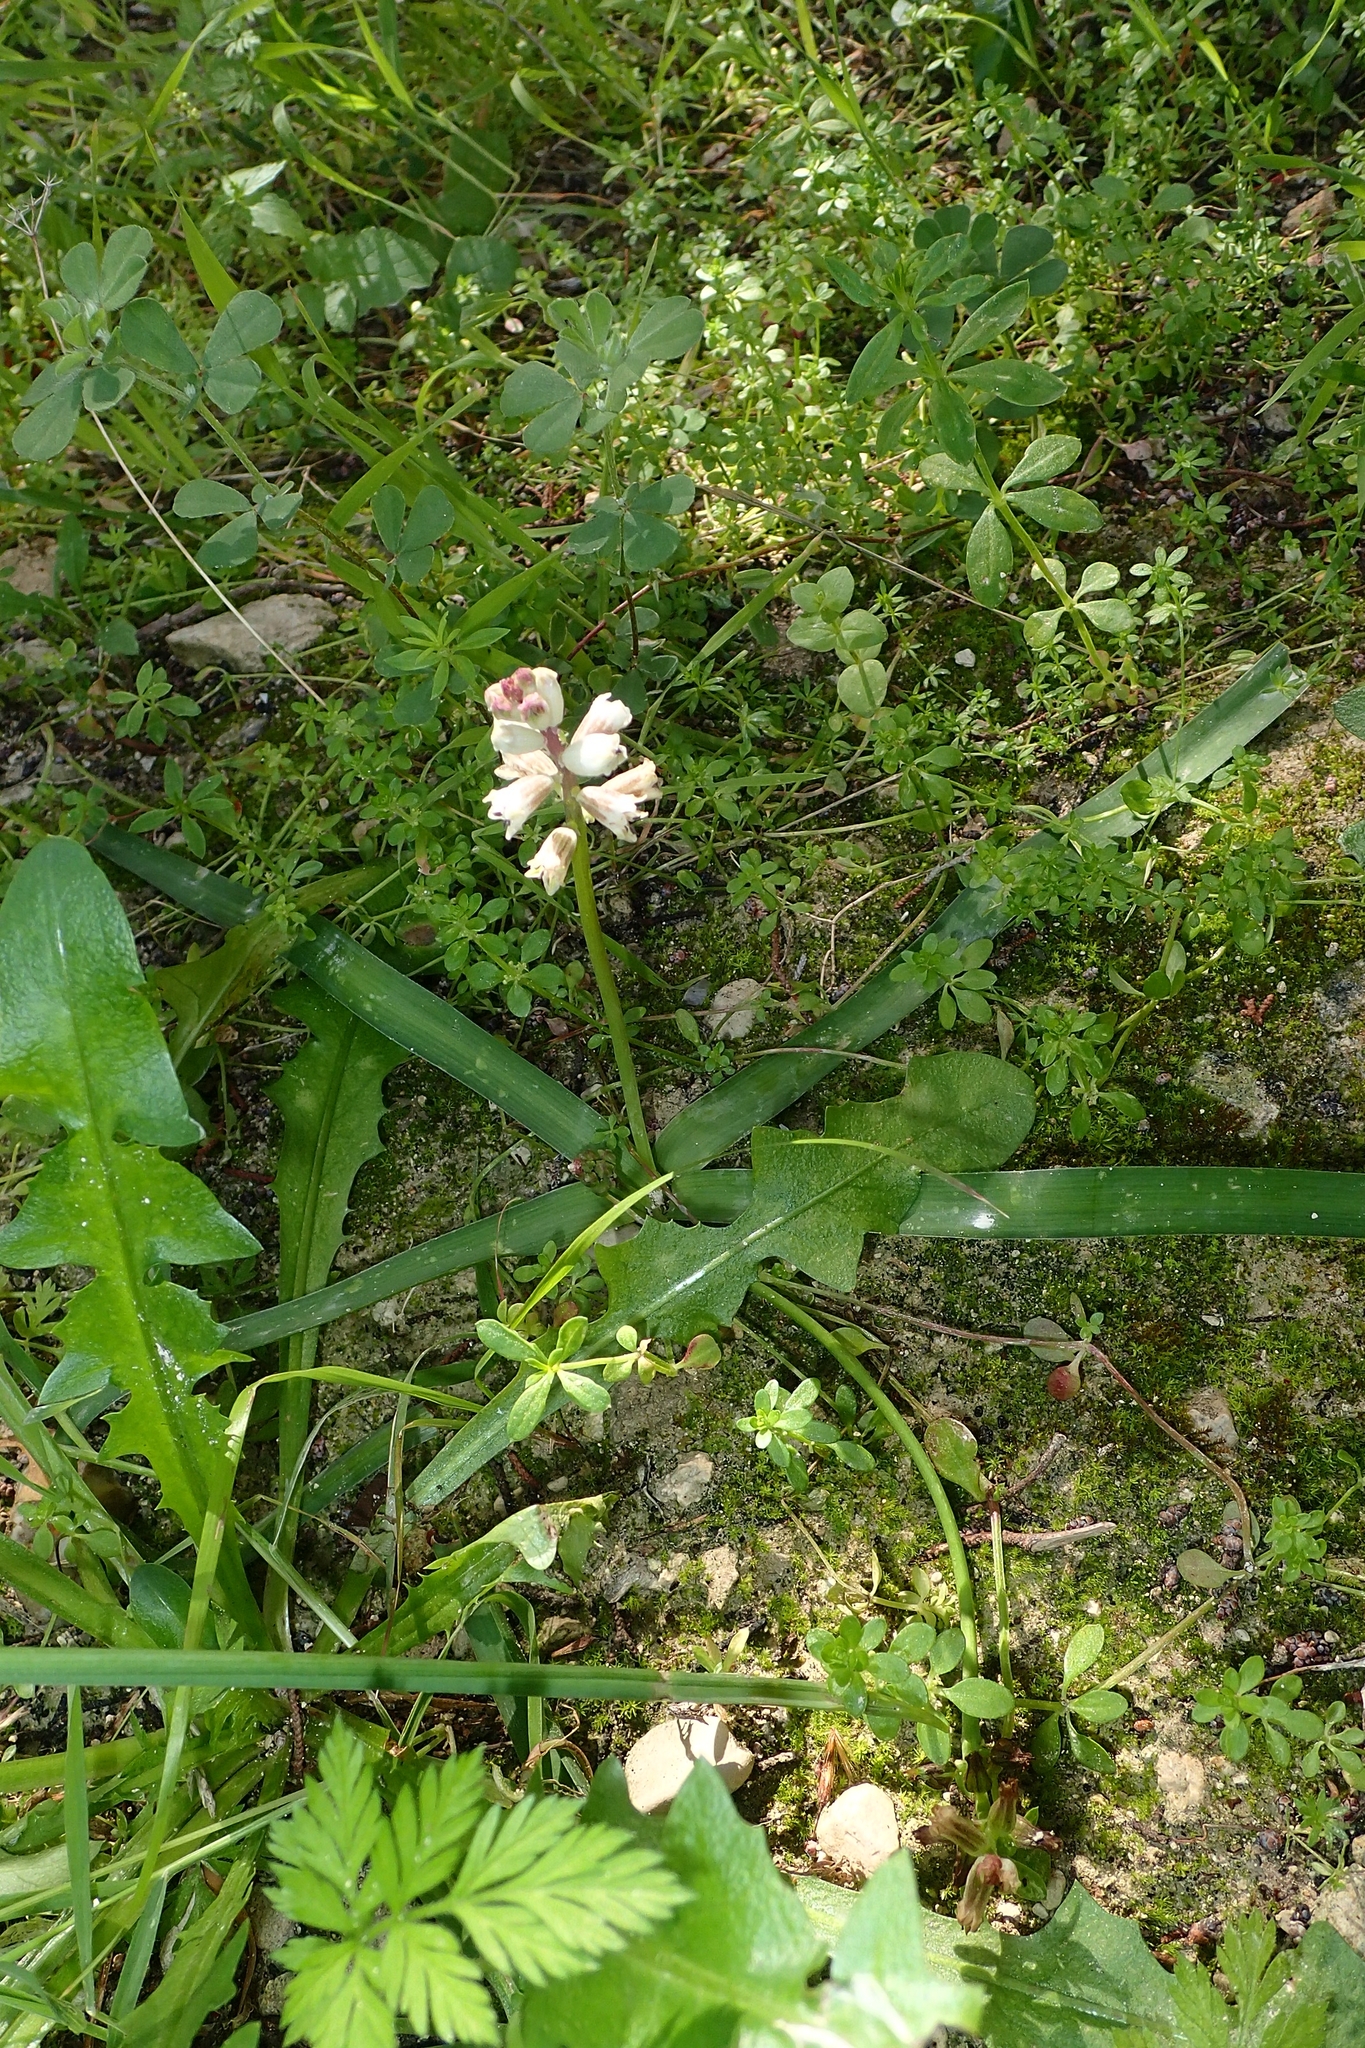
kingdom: Plantae
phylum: Tracheophyta
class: Liliopsida
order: Asparagales
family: Asparagaceae
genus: Bellevalia
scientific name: Bellevalia nivalis
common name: Snow bellevalia
